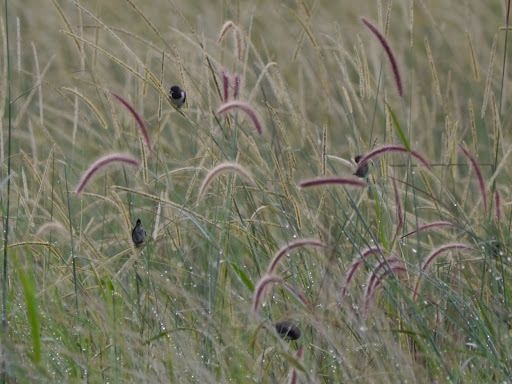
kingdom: Animalia
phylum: Chordata
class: Aves
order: Passeriformes
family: Estrildidae
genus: Lonchura
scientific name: Lonchura cucullata
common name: Bronze mannikin
